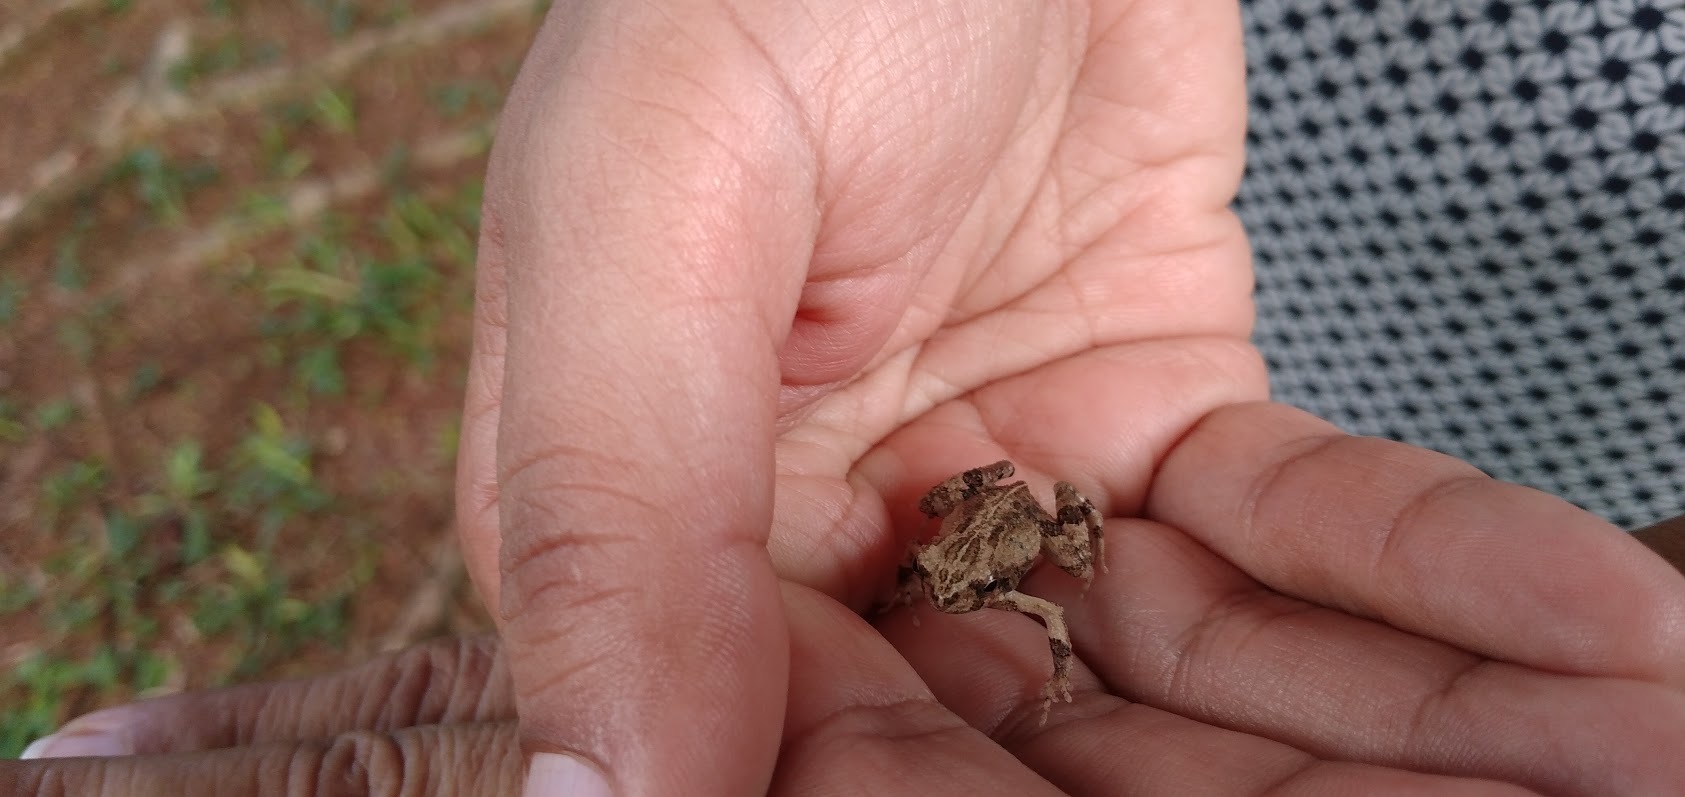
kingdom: Animalia
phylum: Chordata
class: Amphibia
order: Anura
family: Leptodactylidae
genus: Engystomops
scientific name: Engystomops pustulosus
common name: Tungara frog
